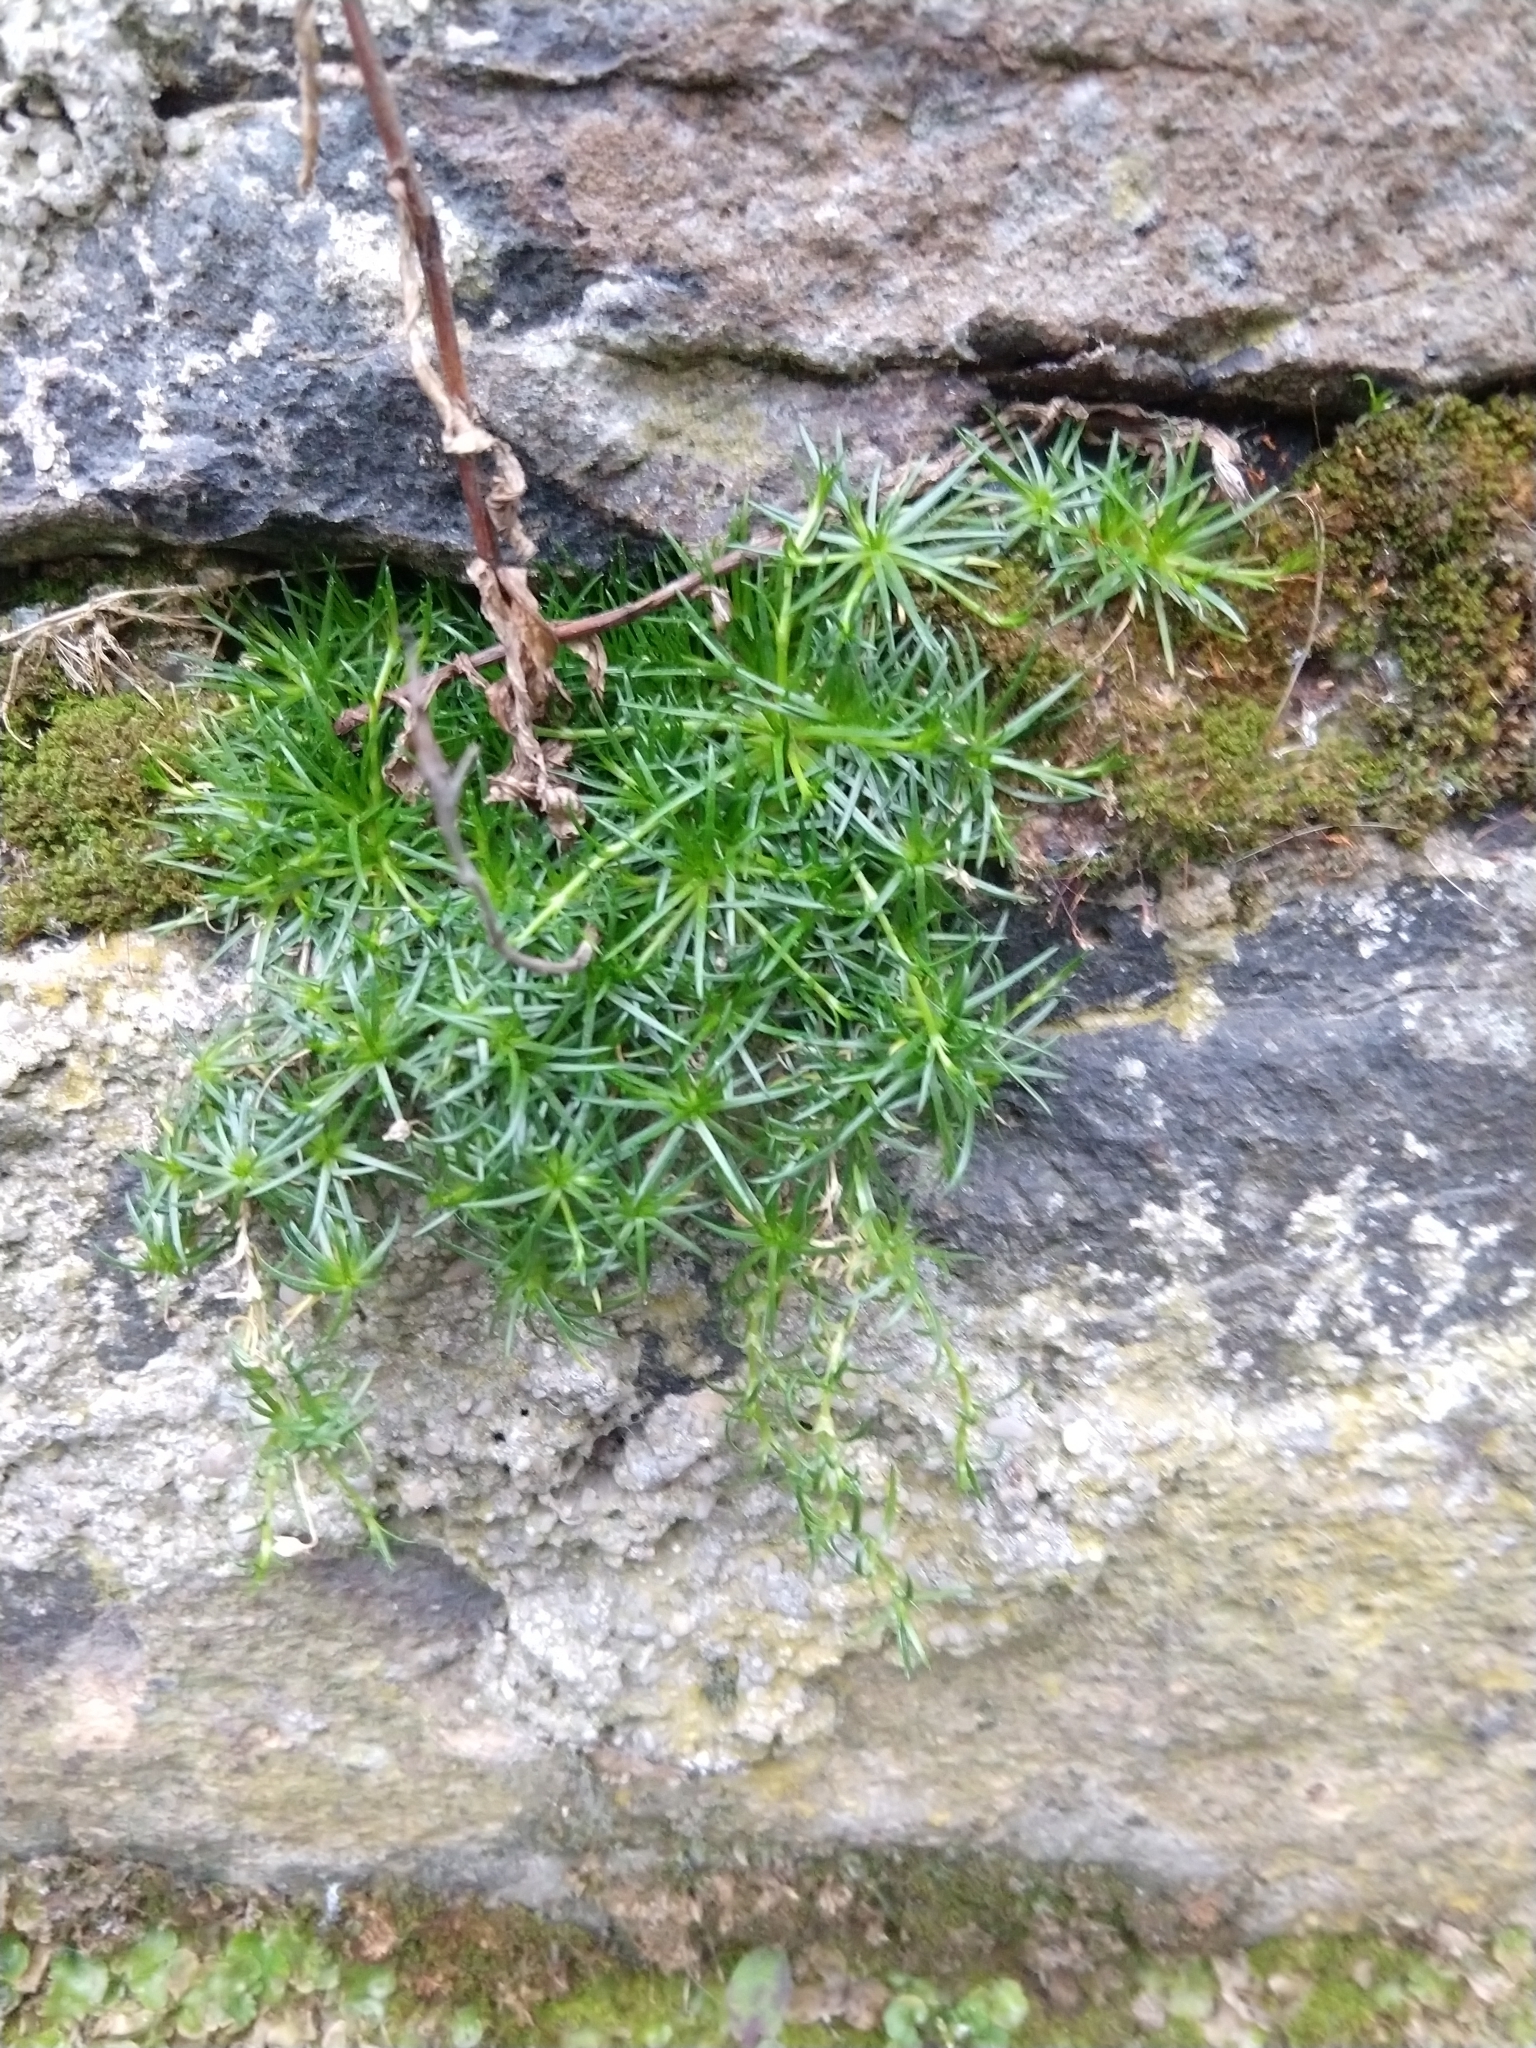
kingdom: Plantae
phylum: Tracheophyta
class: Magnoliopsida
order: Caryophyllales
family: Caryophyllaceae
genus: Sagina
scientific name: Sagina procumbens
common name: Procumbent pearlwort
